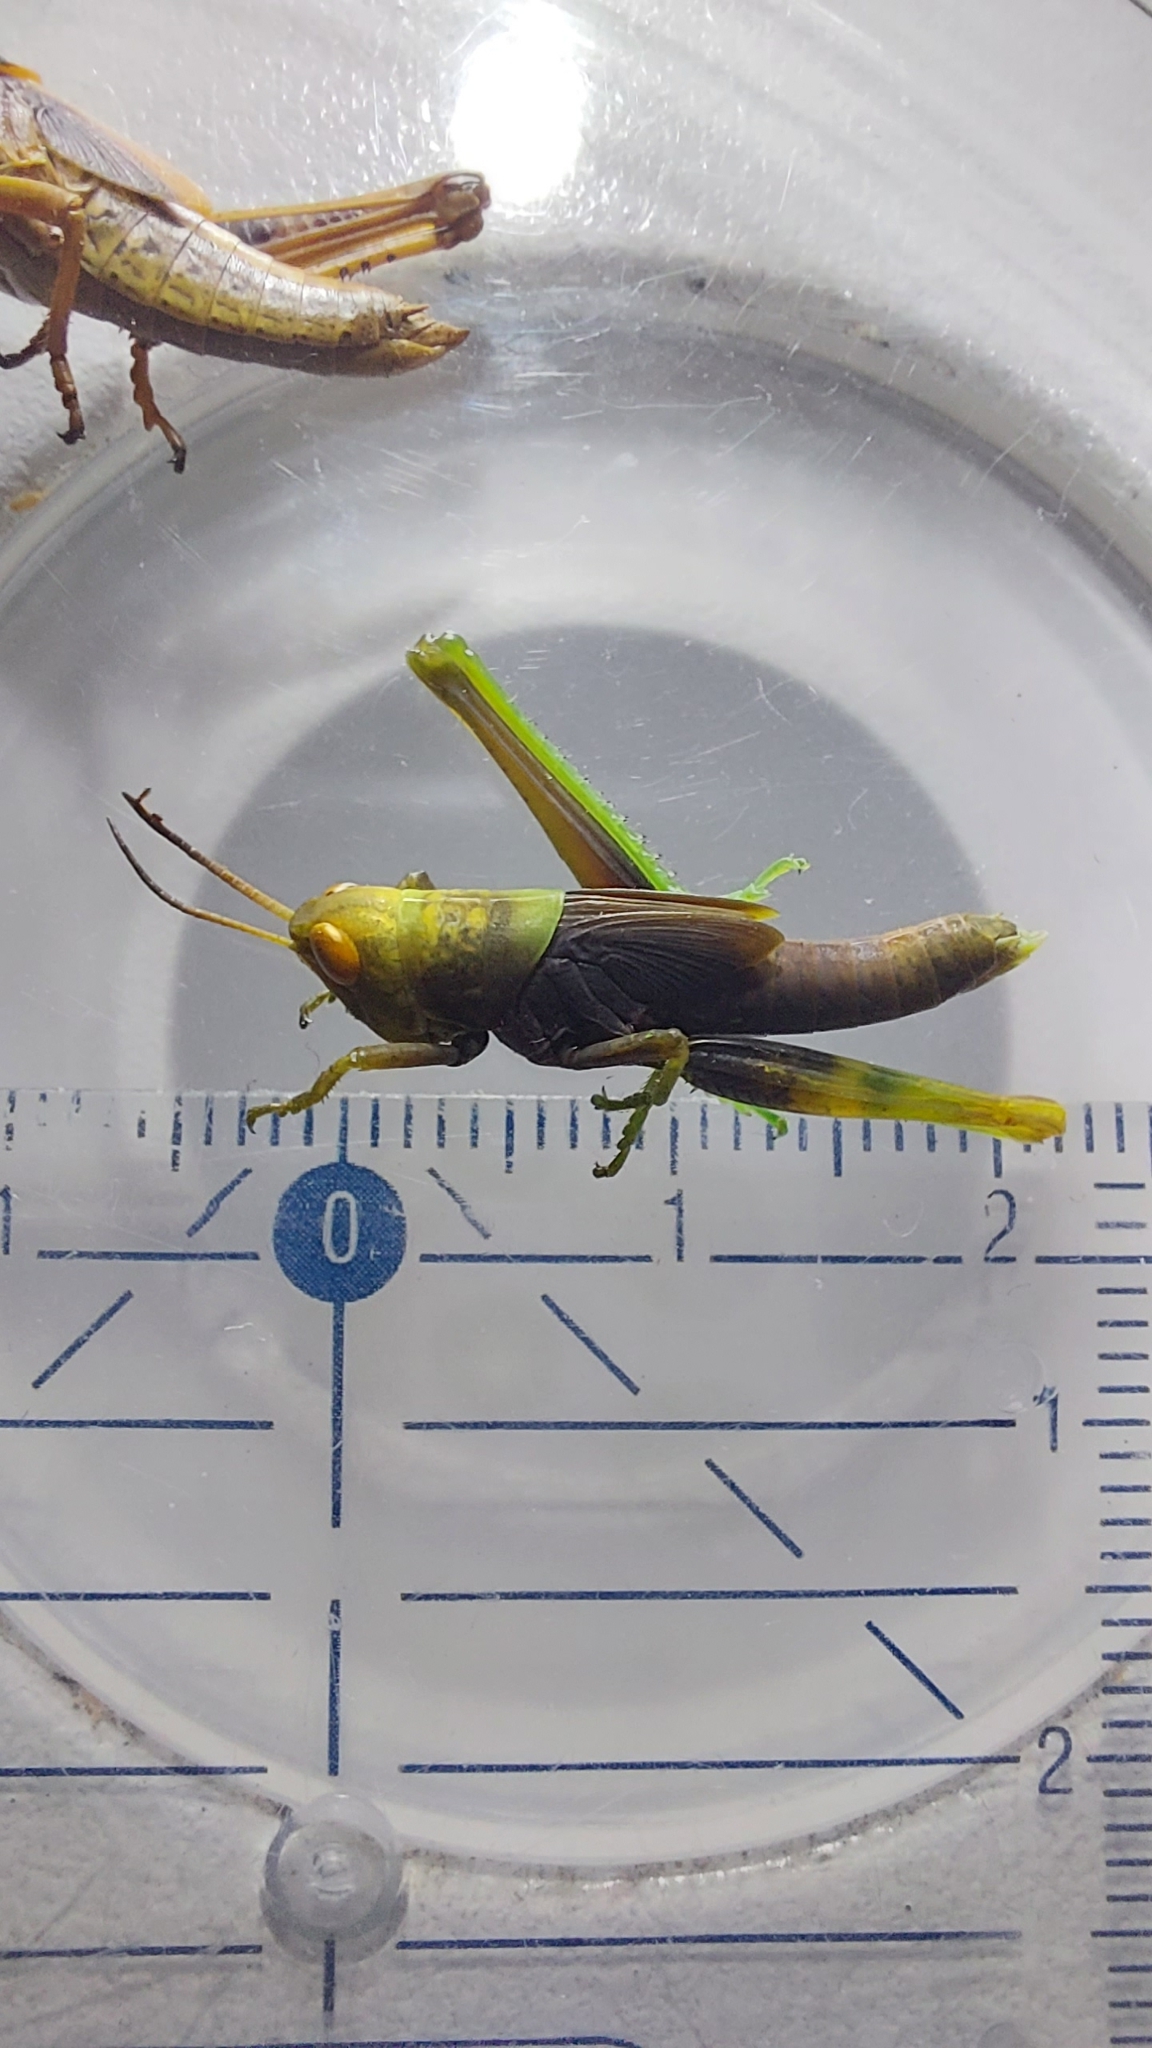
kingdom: Animalia
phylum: Arthropoda
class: Insecta
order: Orthoptera
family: Acrididae
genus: Mecostethus
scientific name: Mecostethus parapleurus
